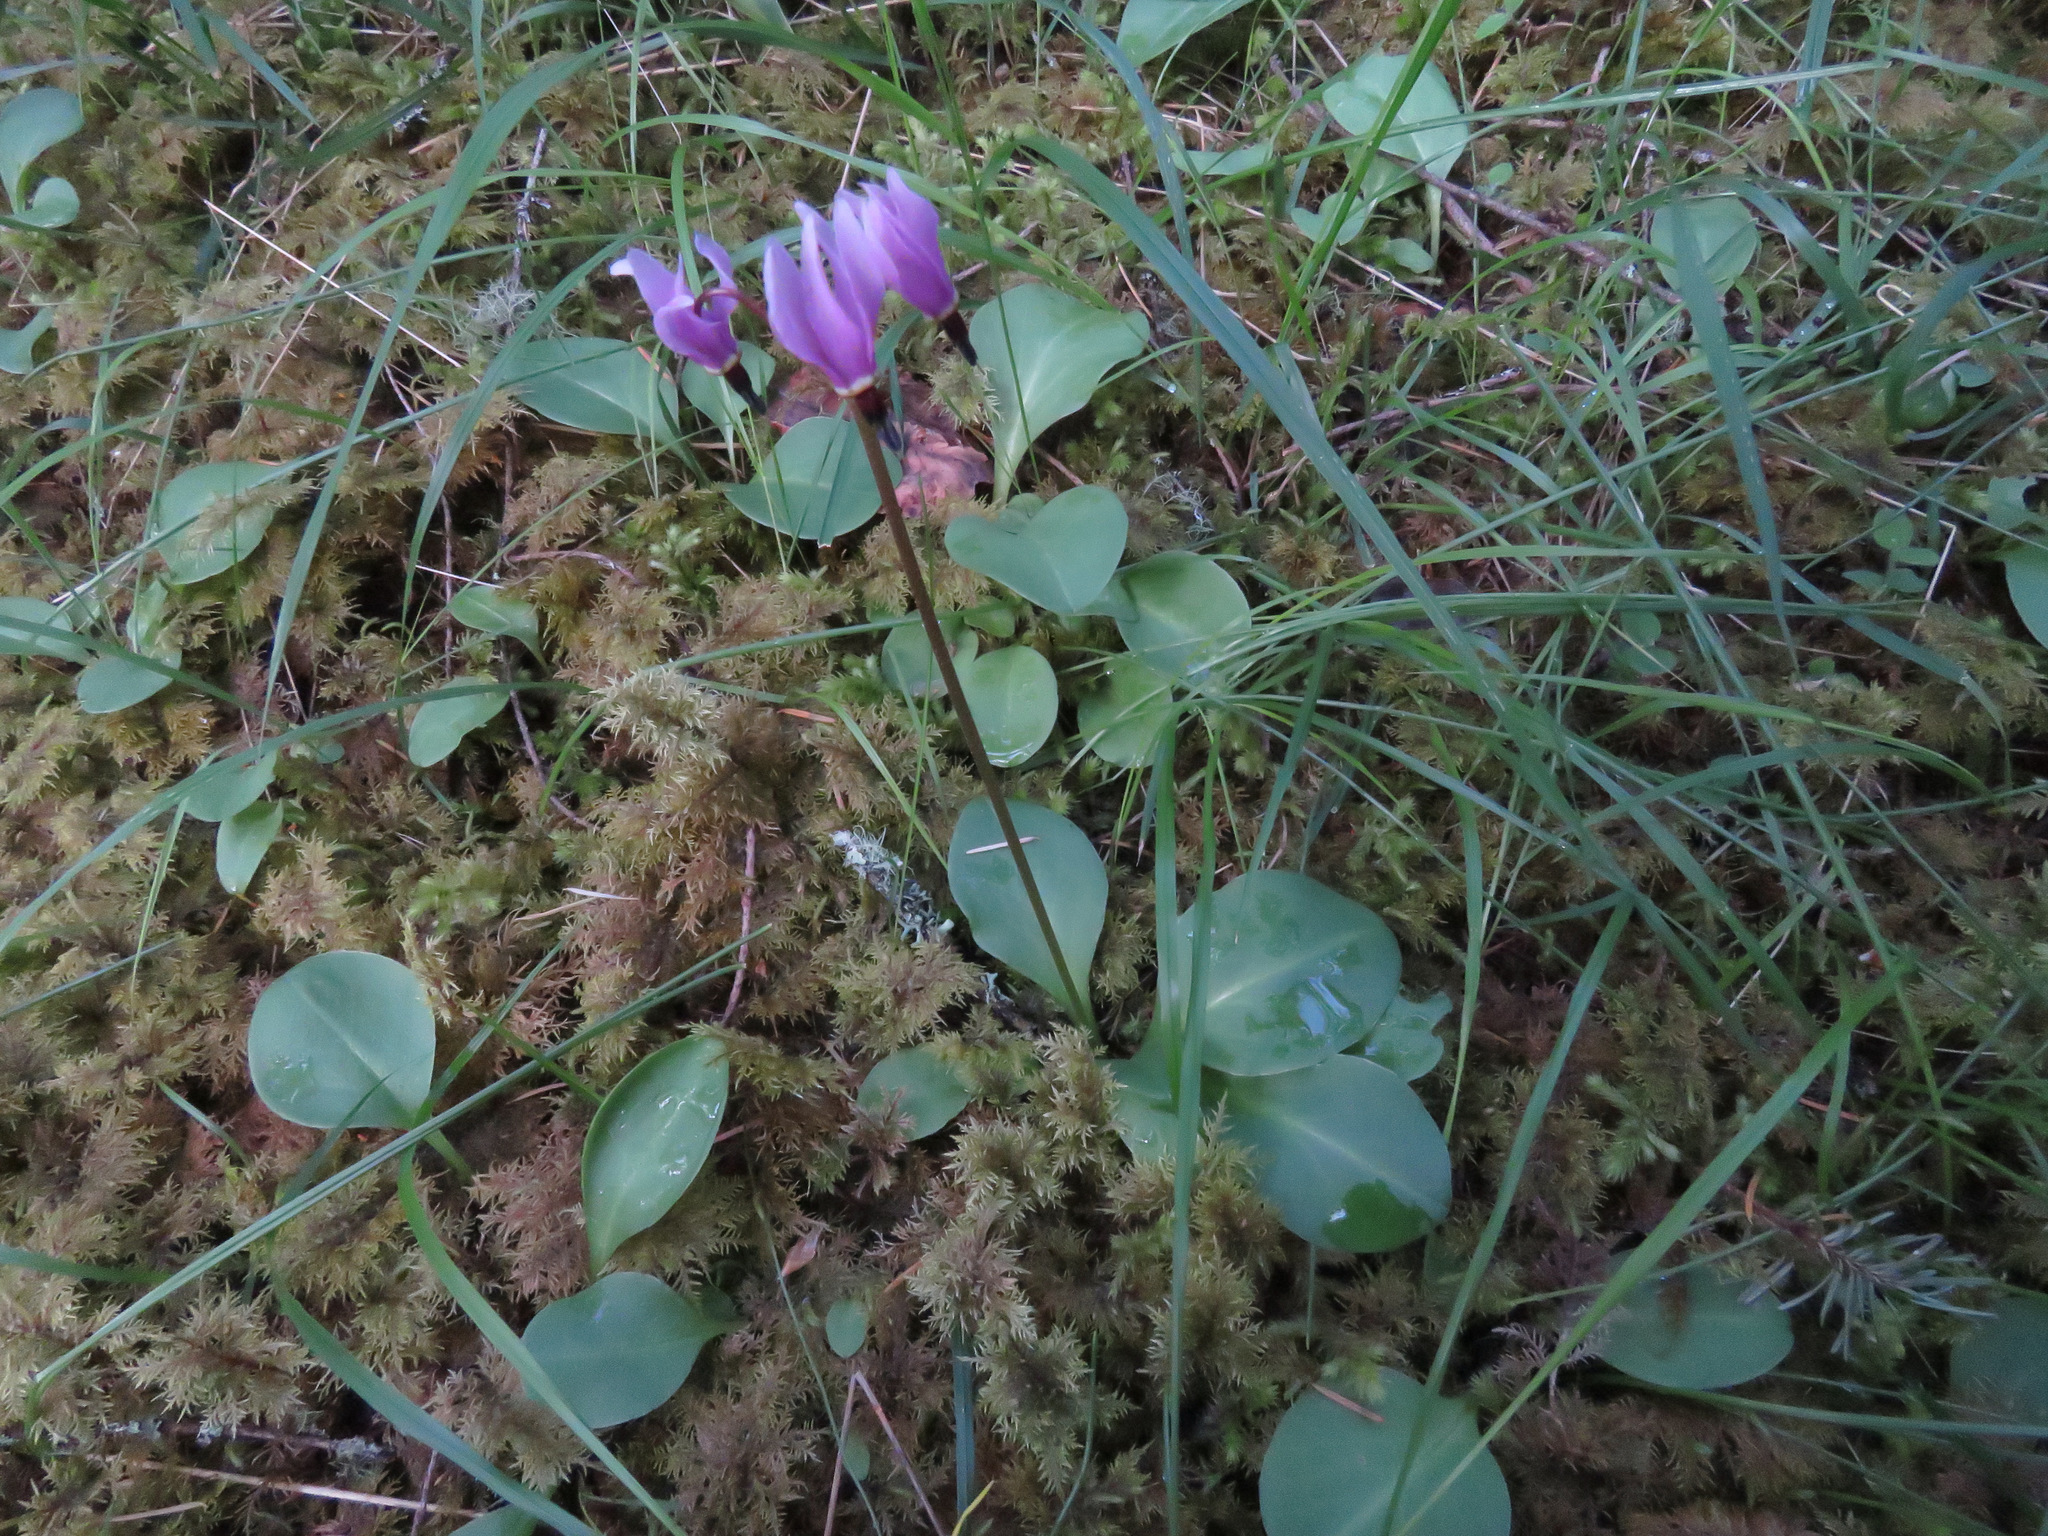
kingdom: Plantae
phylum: Tracheophyta
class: Magnoliopsida
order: Ericales
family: Primulaceae
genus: Dodecatheon
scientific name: Dodecatheon hendersonii
